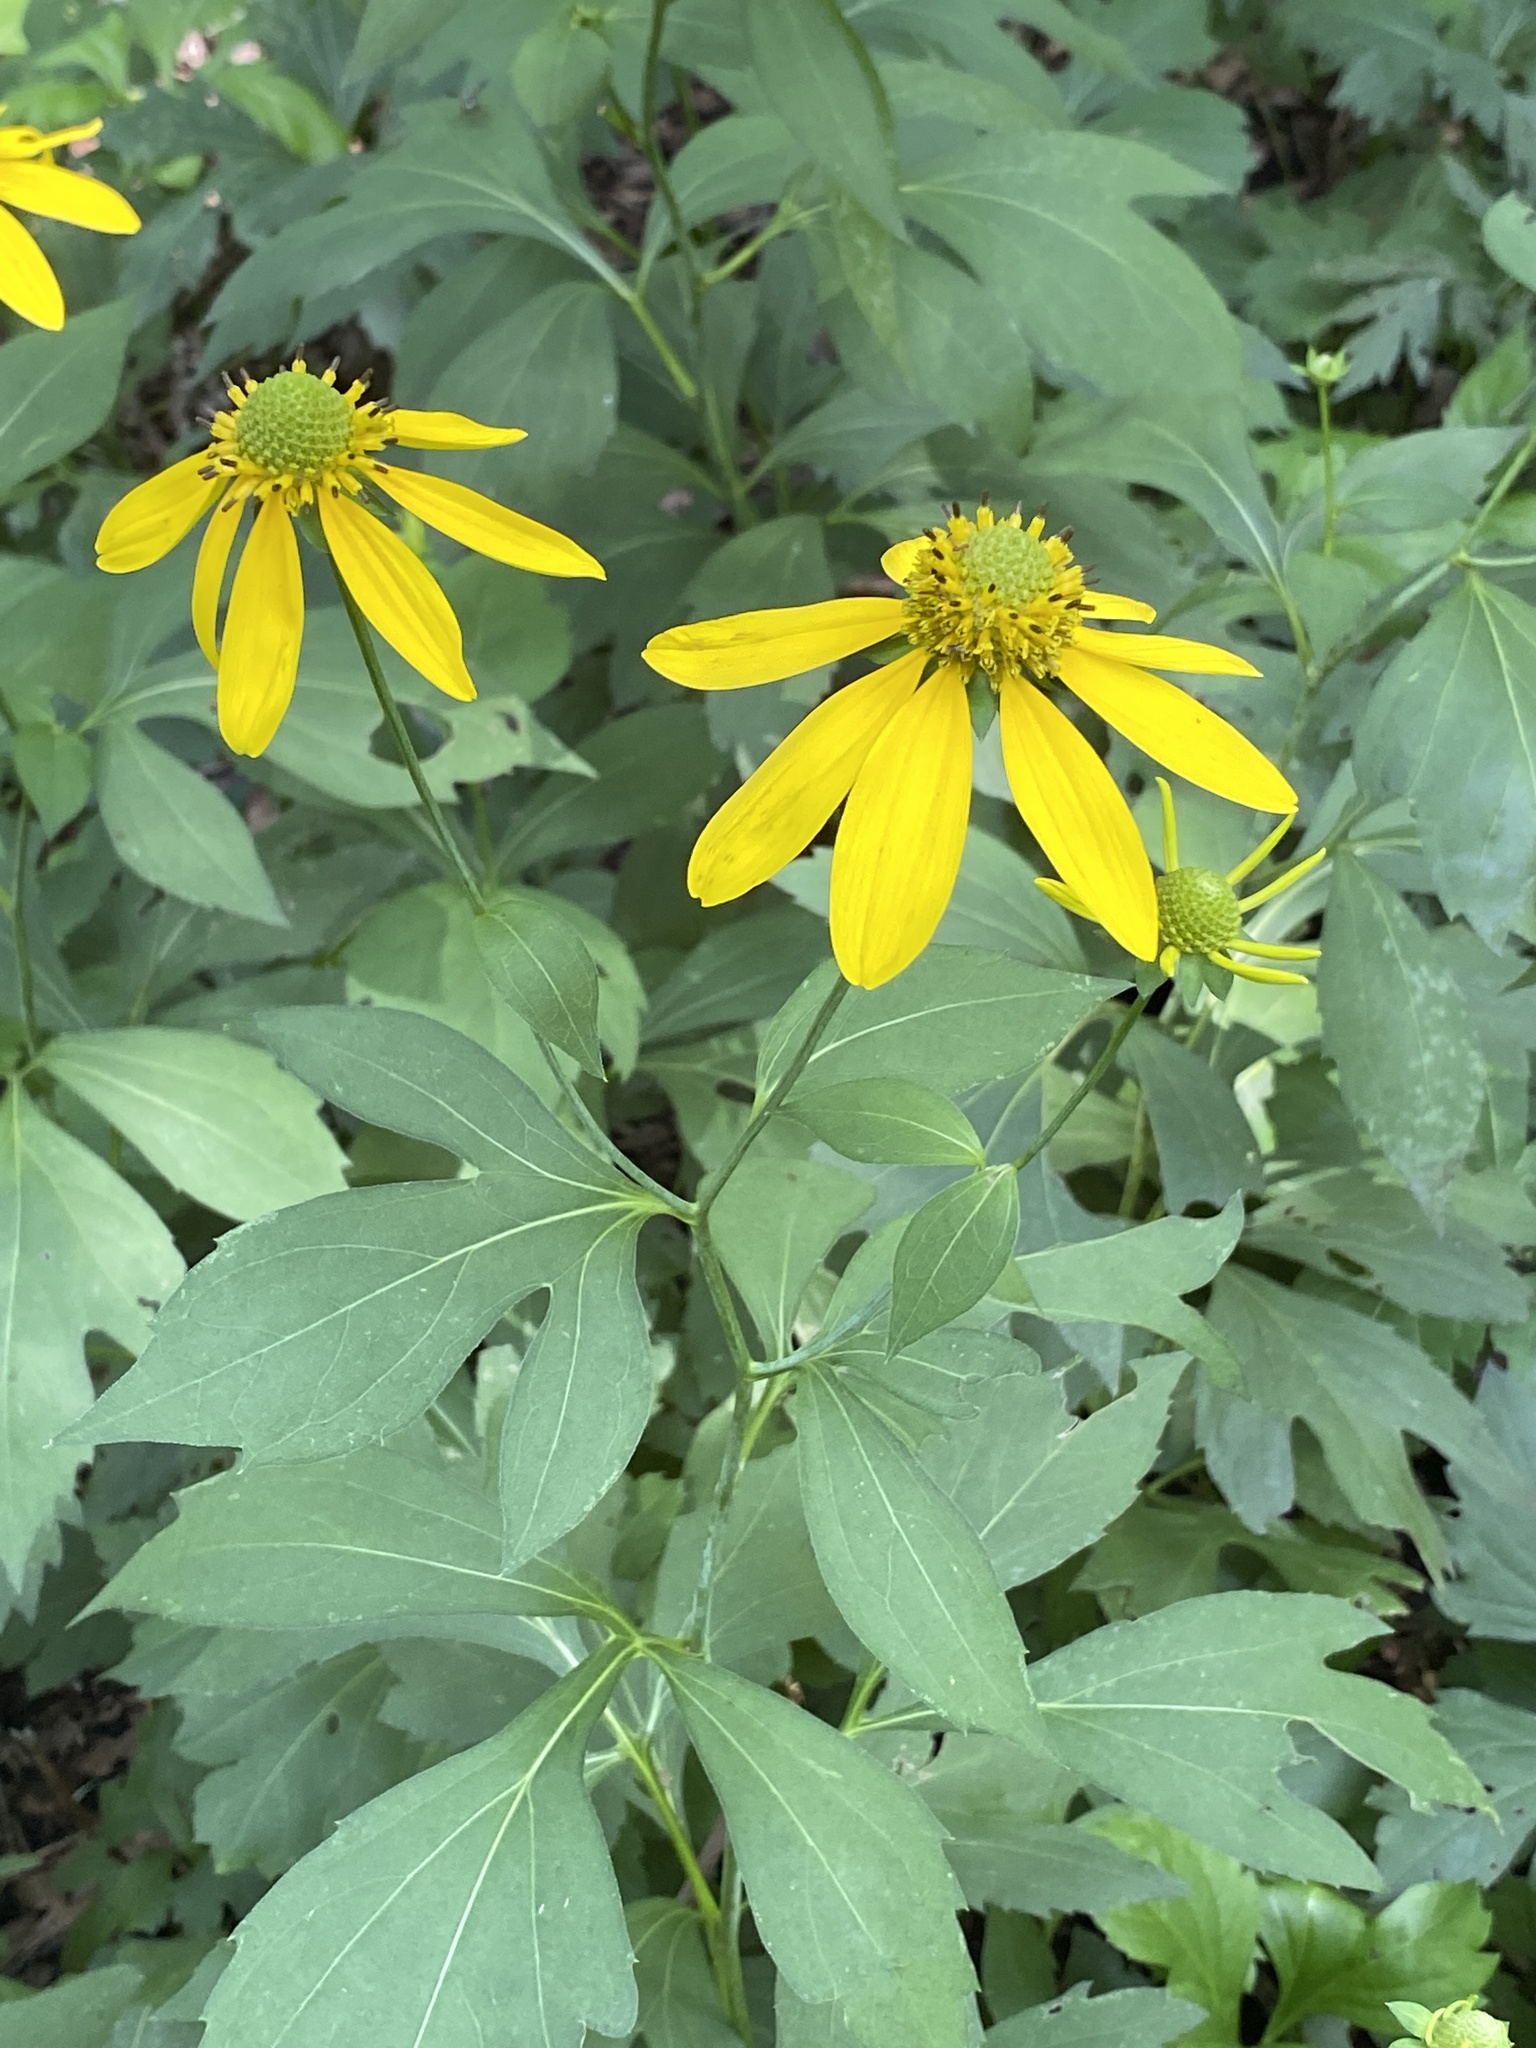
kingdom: Plantae
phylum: Tracheophyta
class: Magnoliopsida
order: Asterales
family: Asteraceae
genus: Rudbeckia
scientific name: Rudbeckia laciniata
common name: Coneflower
